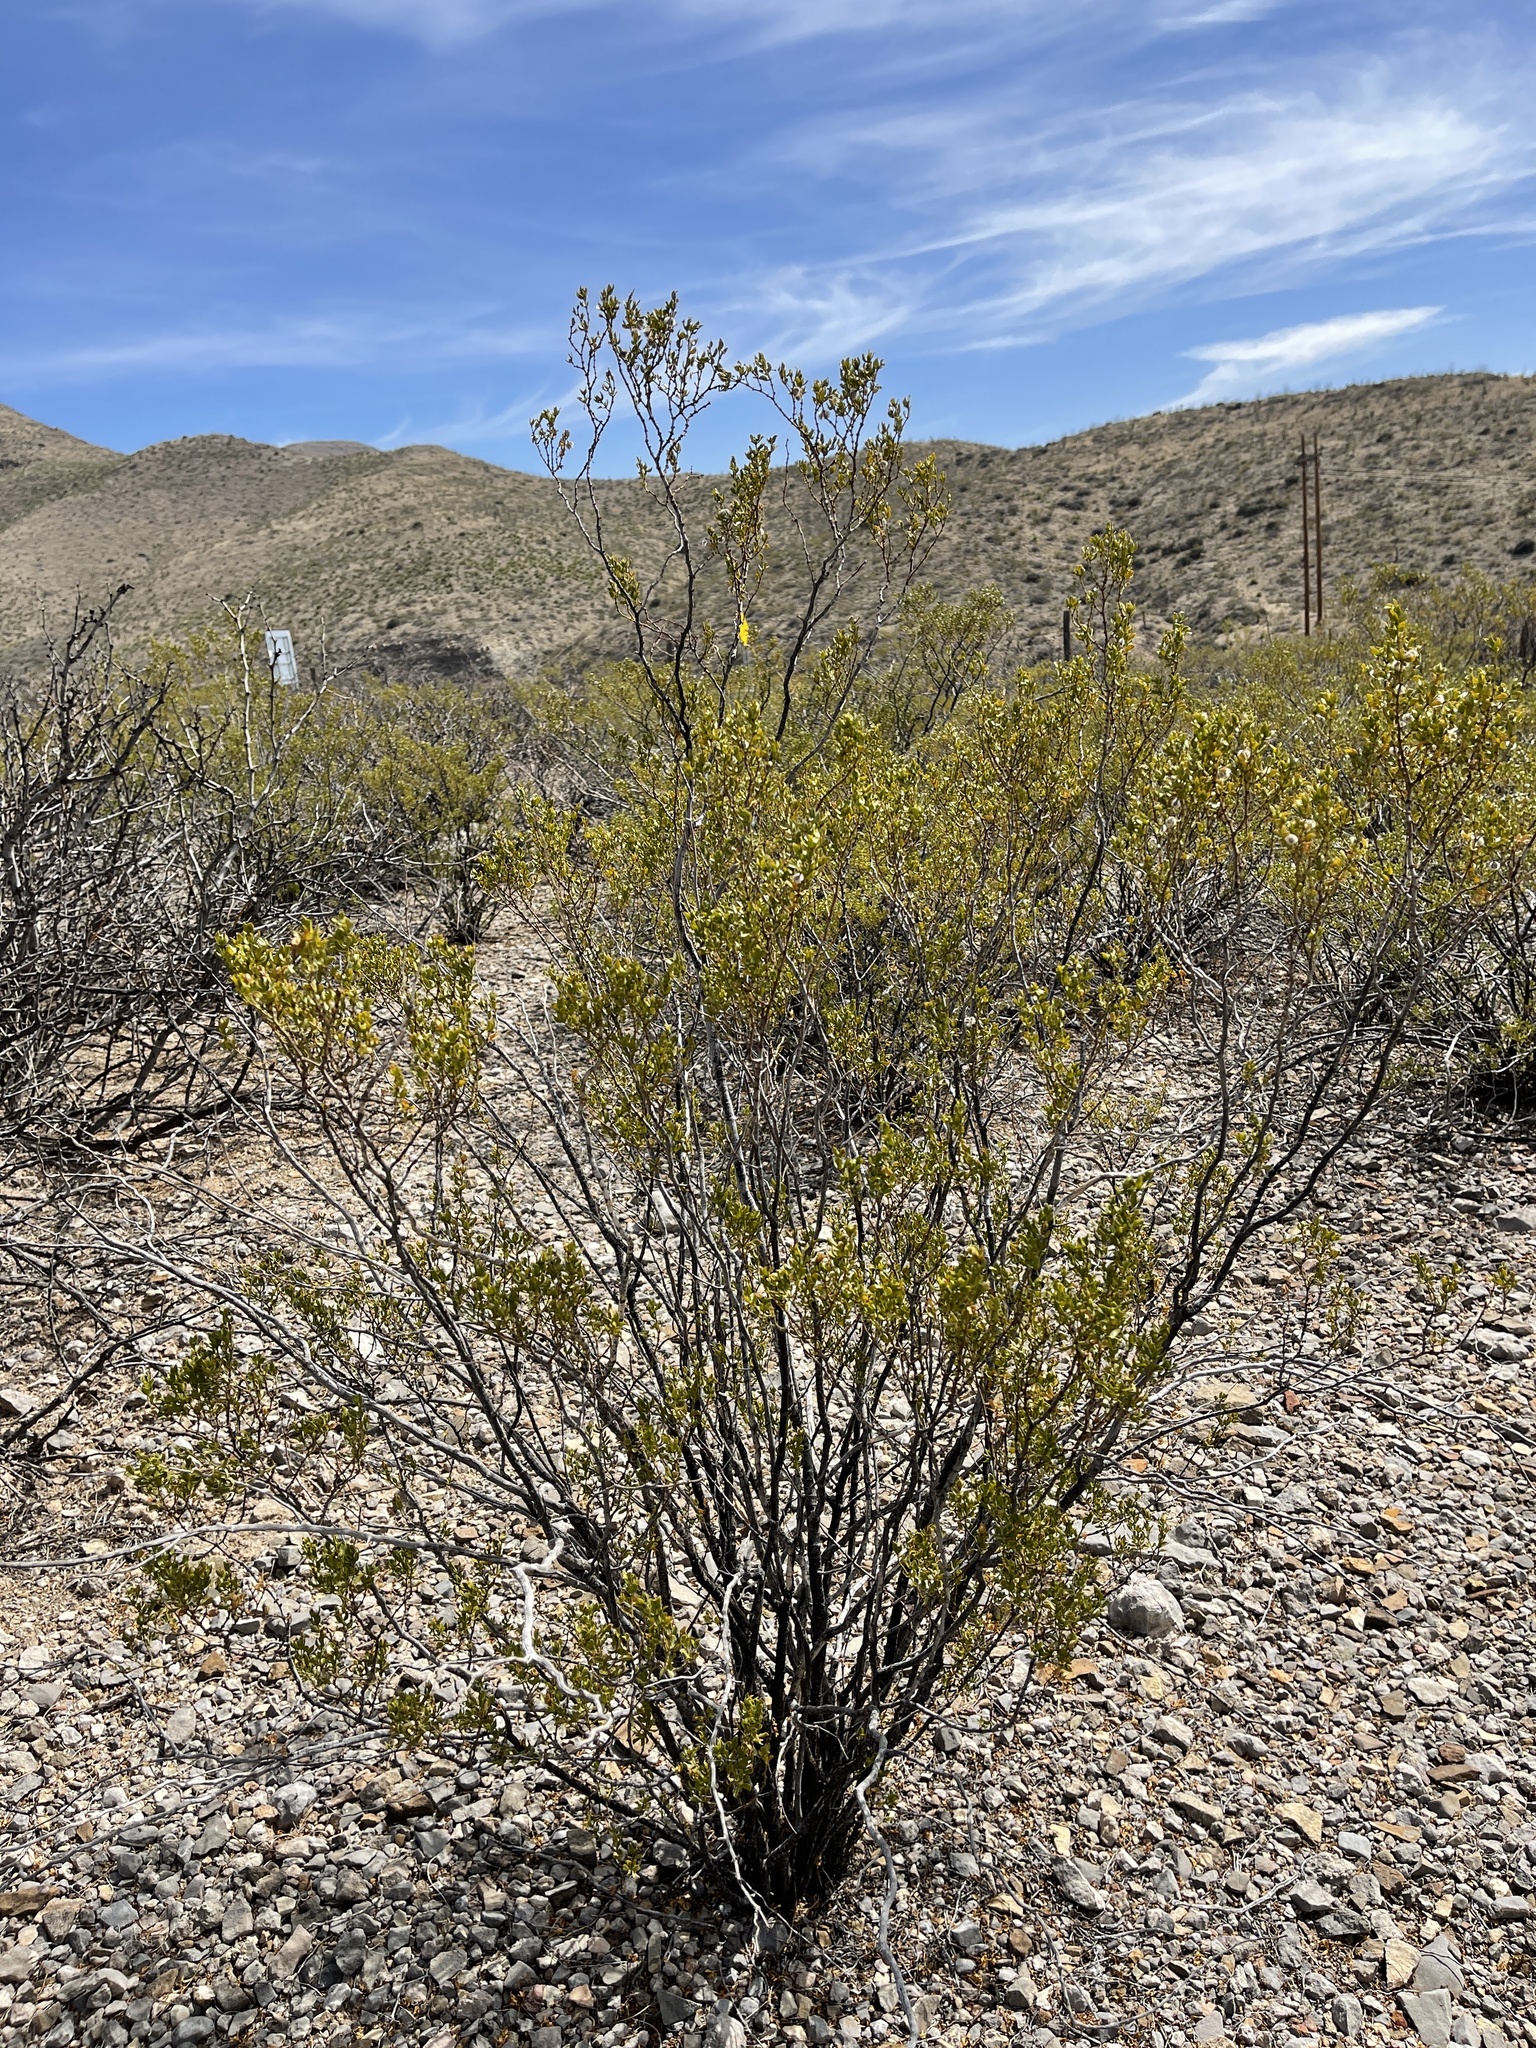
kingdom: Plantae
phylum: Tracheophyta
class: Magnoliopsida
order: Zygophyllales
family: Zygophyllaceae
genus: Larrea
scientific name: Larrea tridentata
